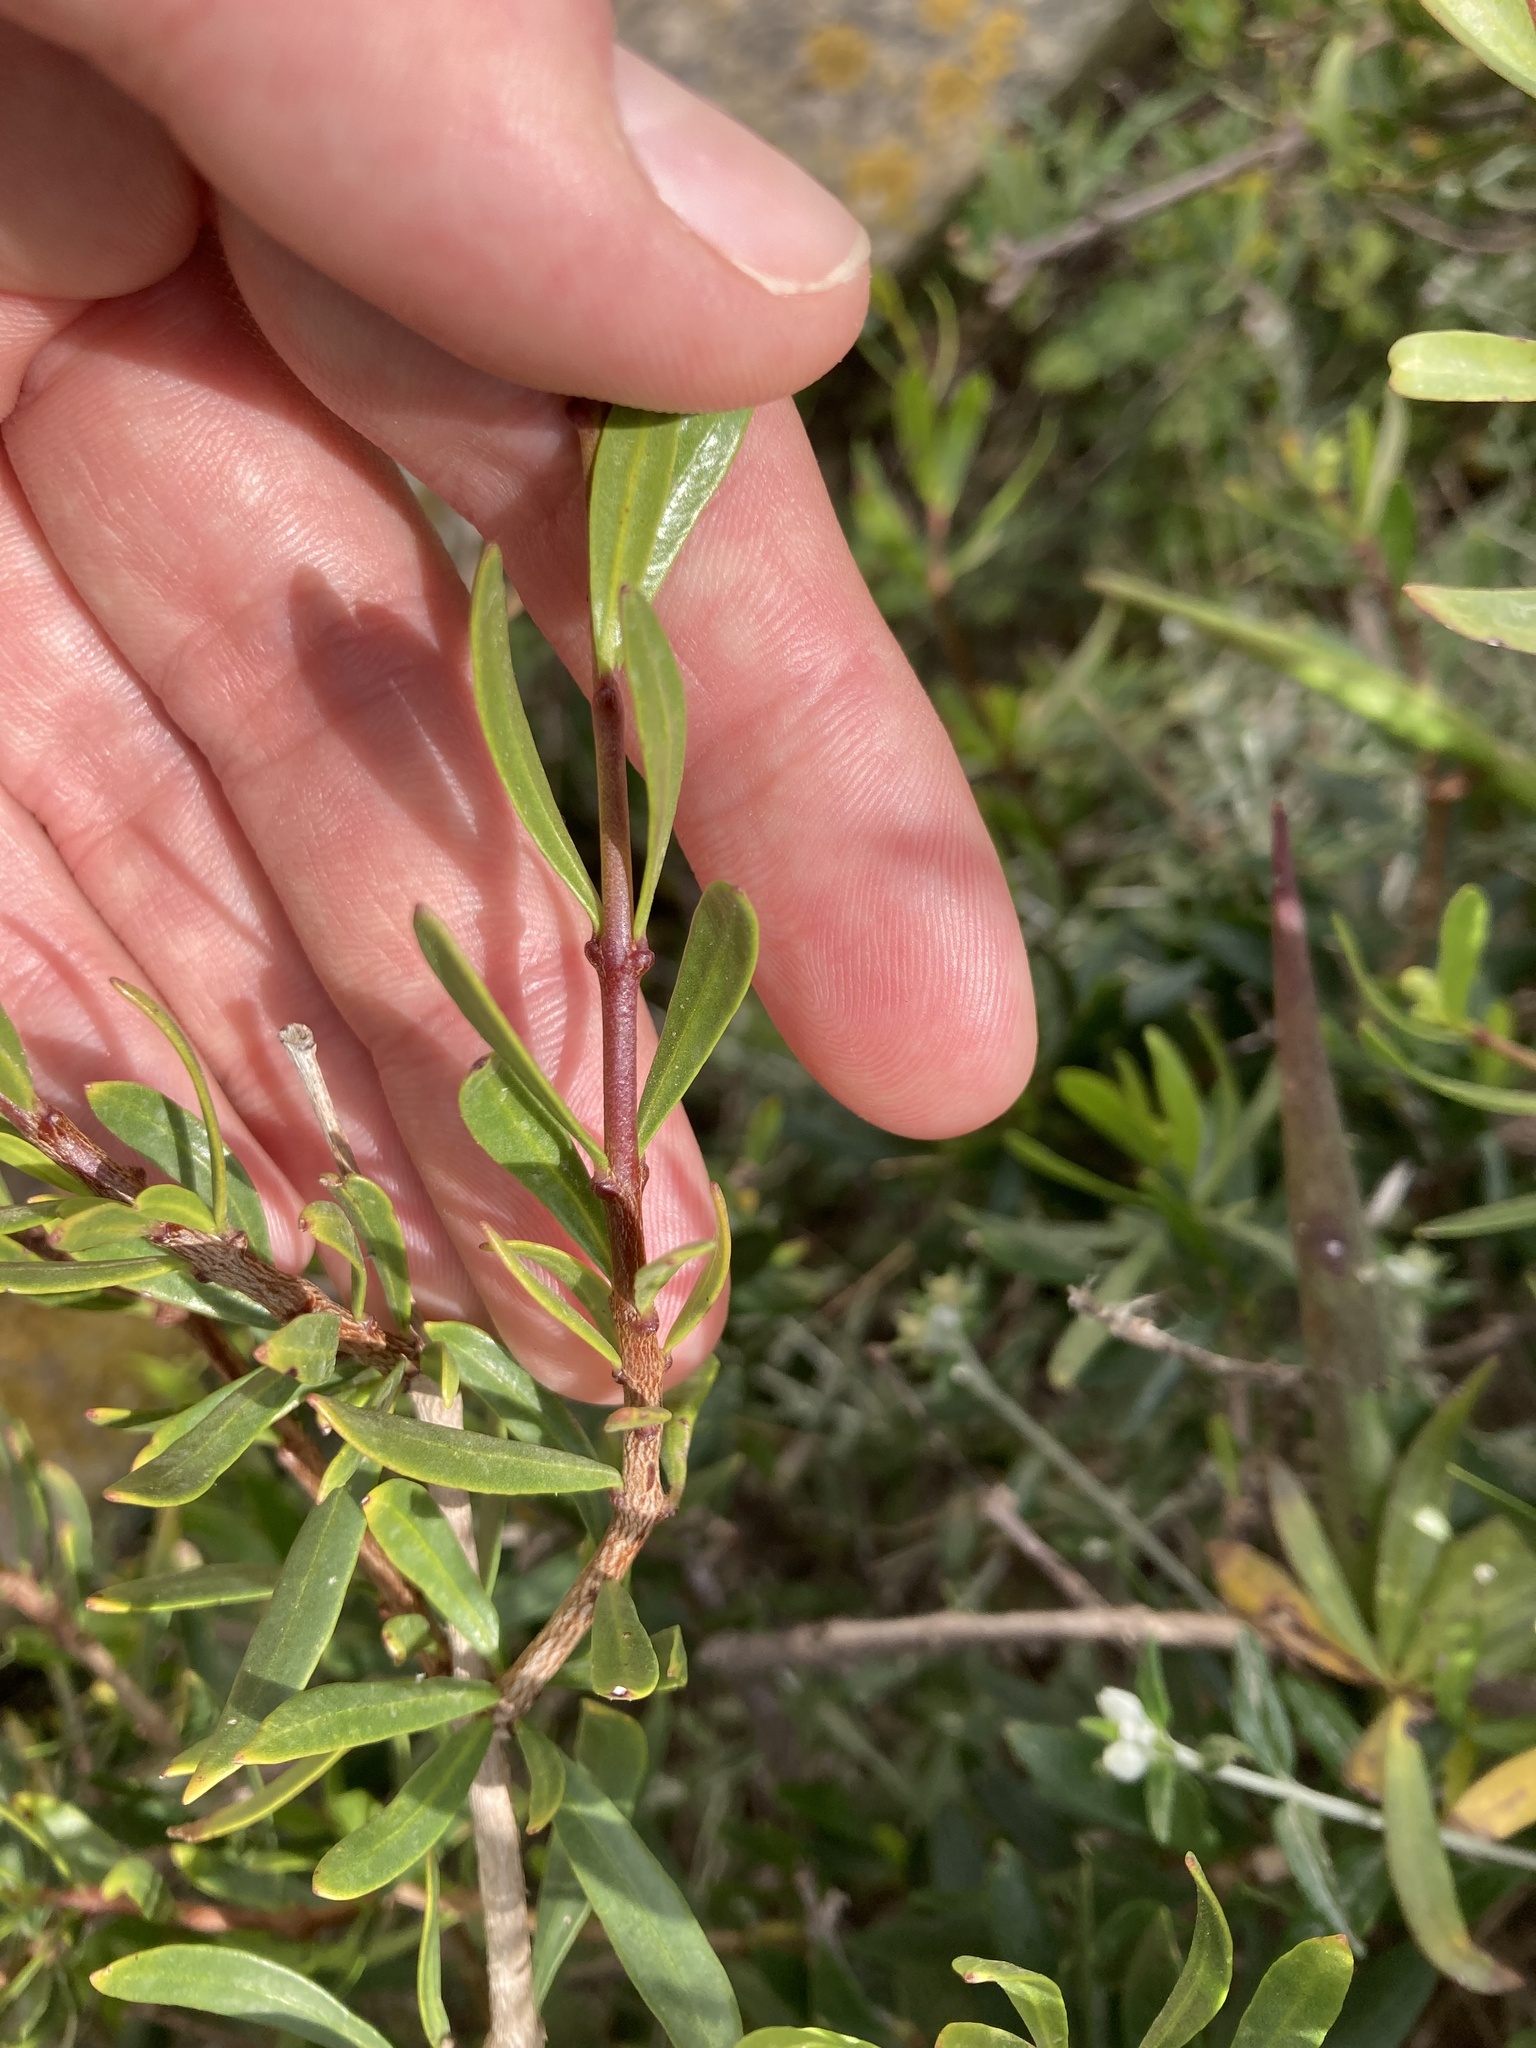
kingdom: Plantae
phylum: Tracheophyta
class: Magnoliopsida
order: Gentianales
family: Apocynaceae
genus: Periploca
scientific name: Periploca laevigata
